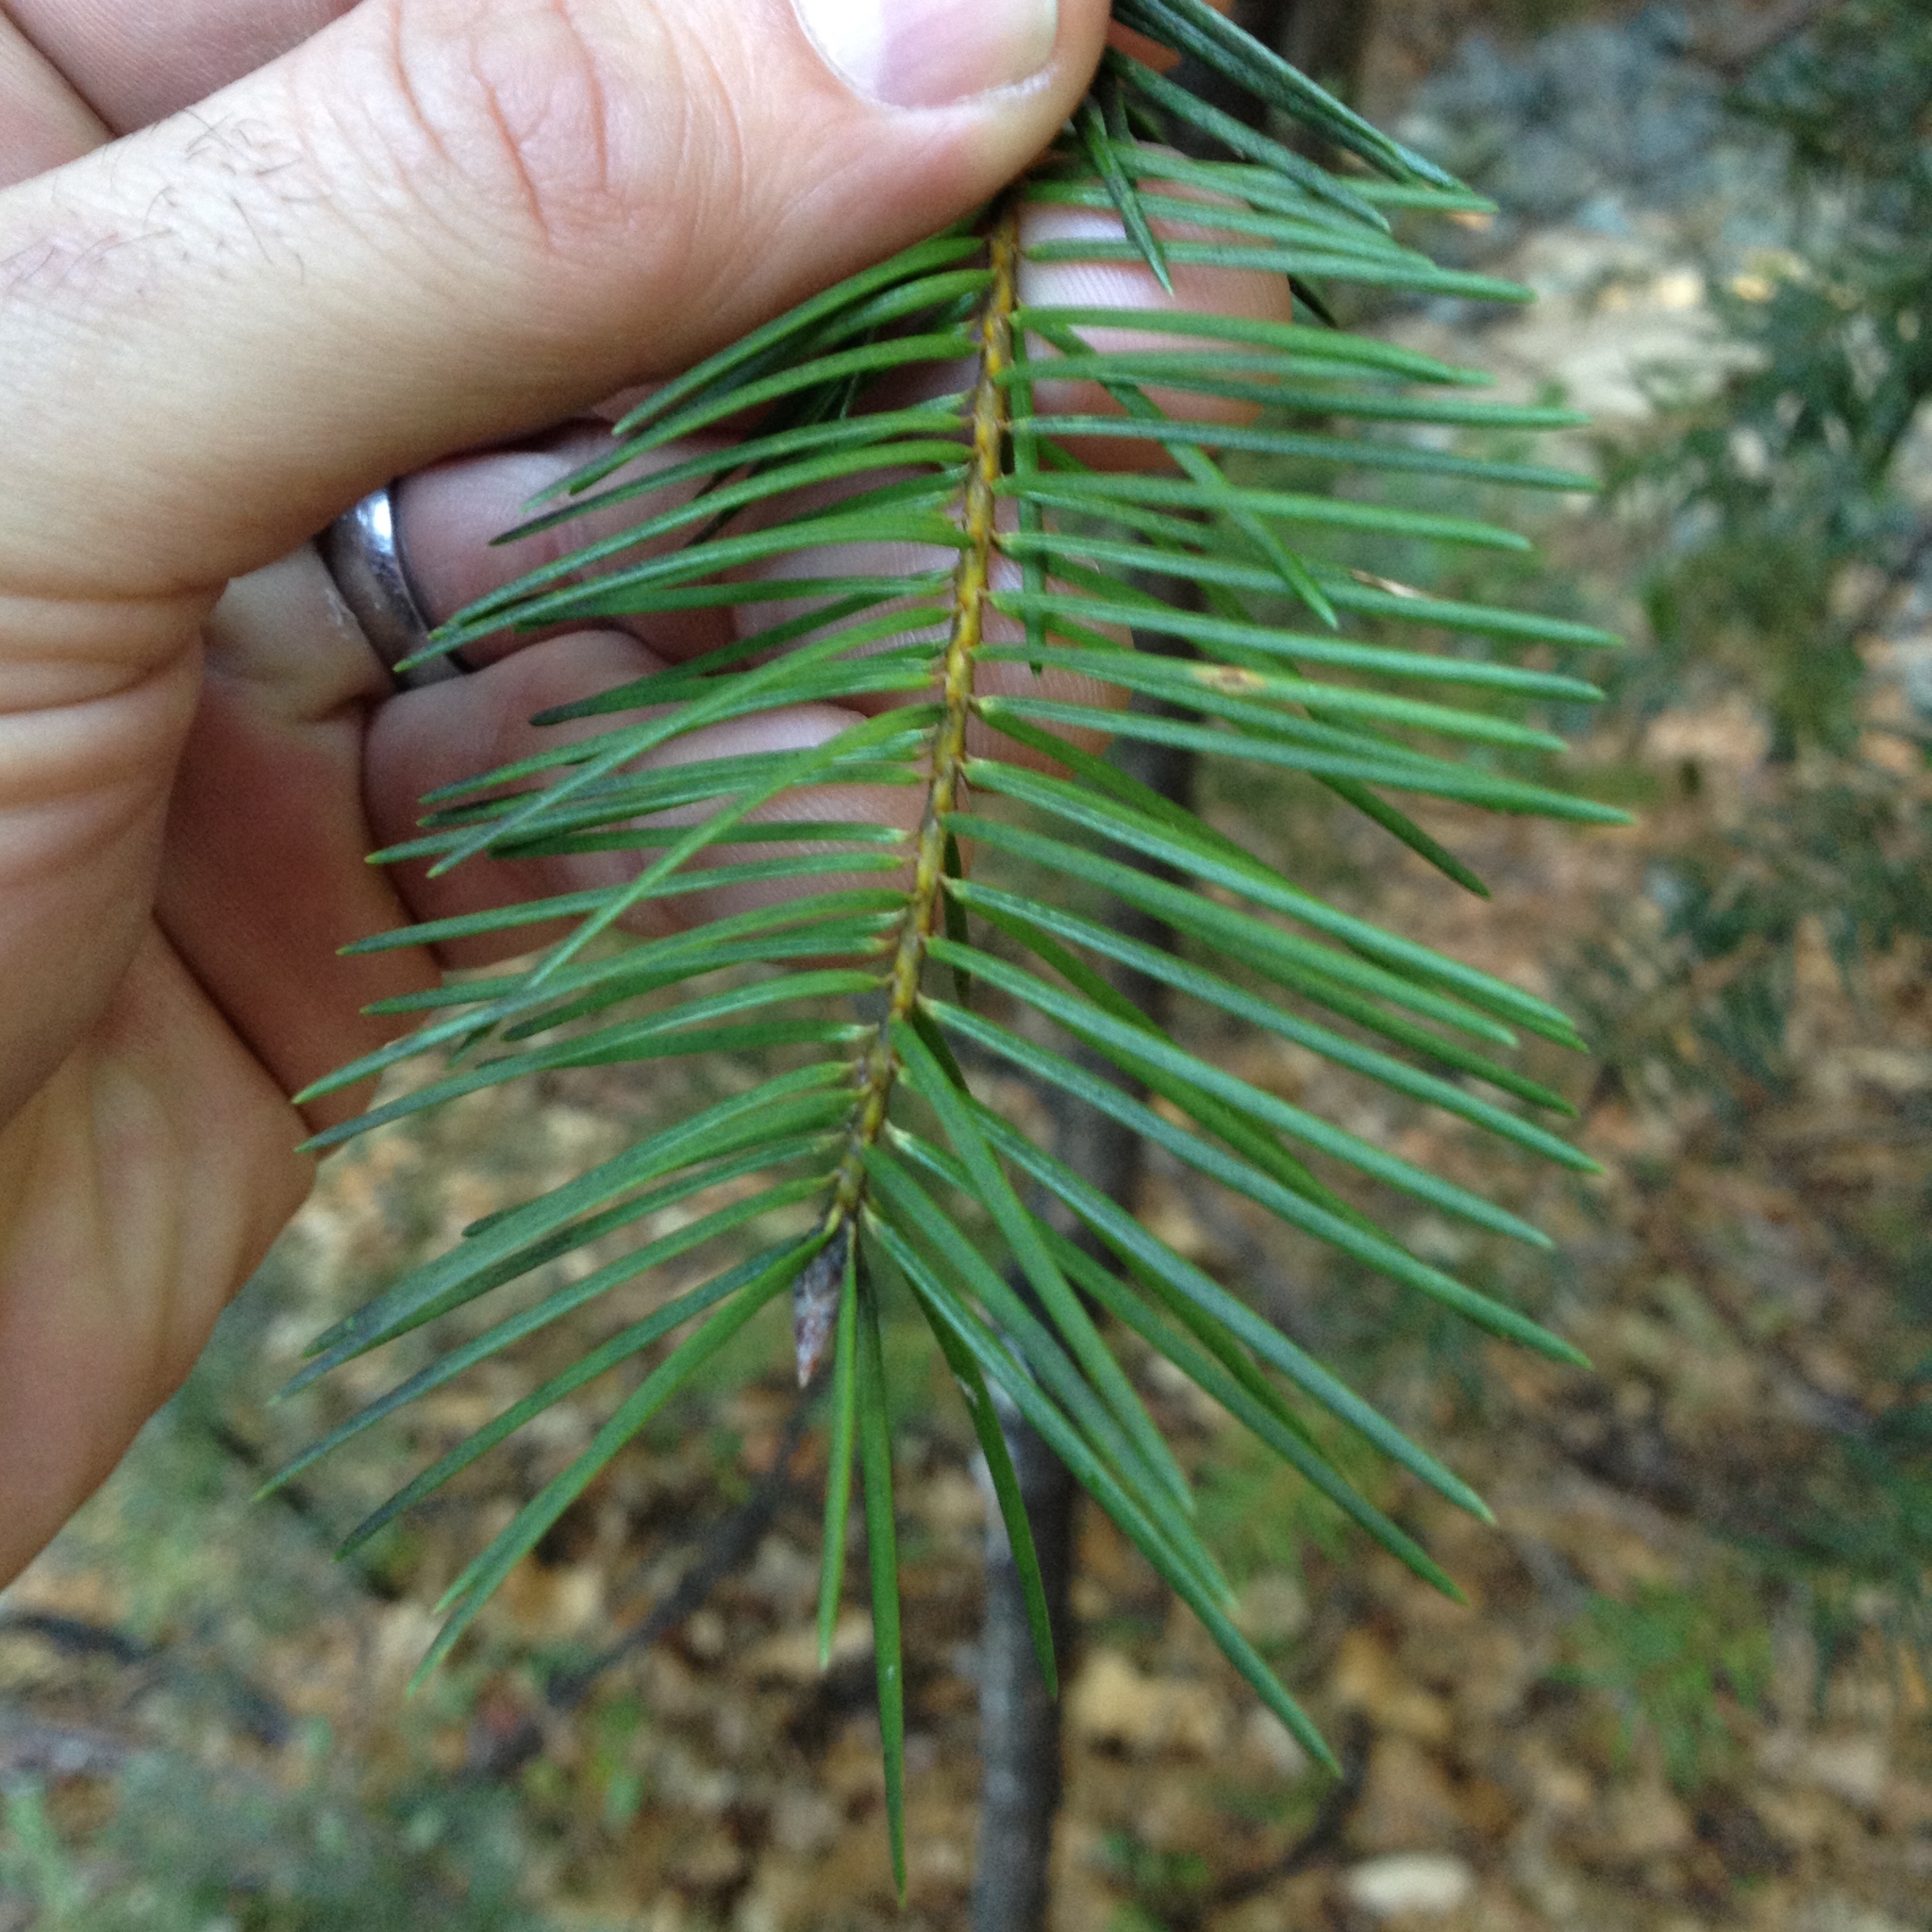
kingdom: Plantae
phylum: Tracheophyta
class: Pinopsida
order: Pinales
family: Pinaceae
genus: Pseudotsuga
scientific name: Pseudotsuga menziesii
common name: Douglas fir
